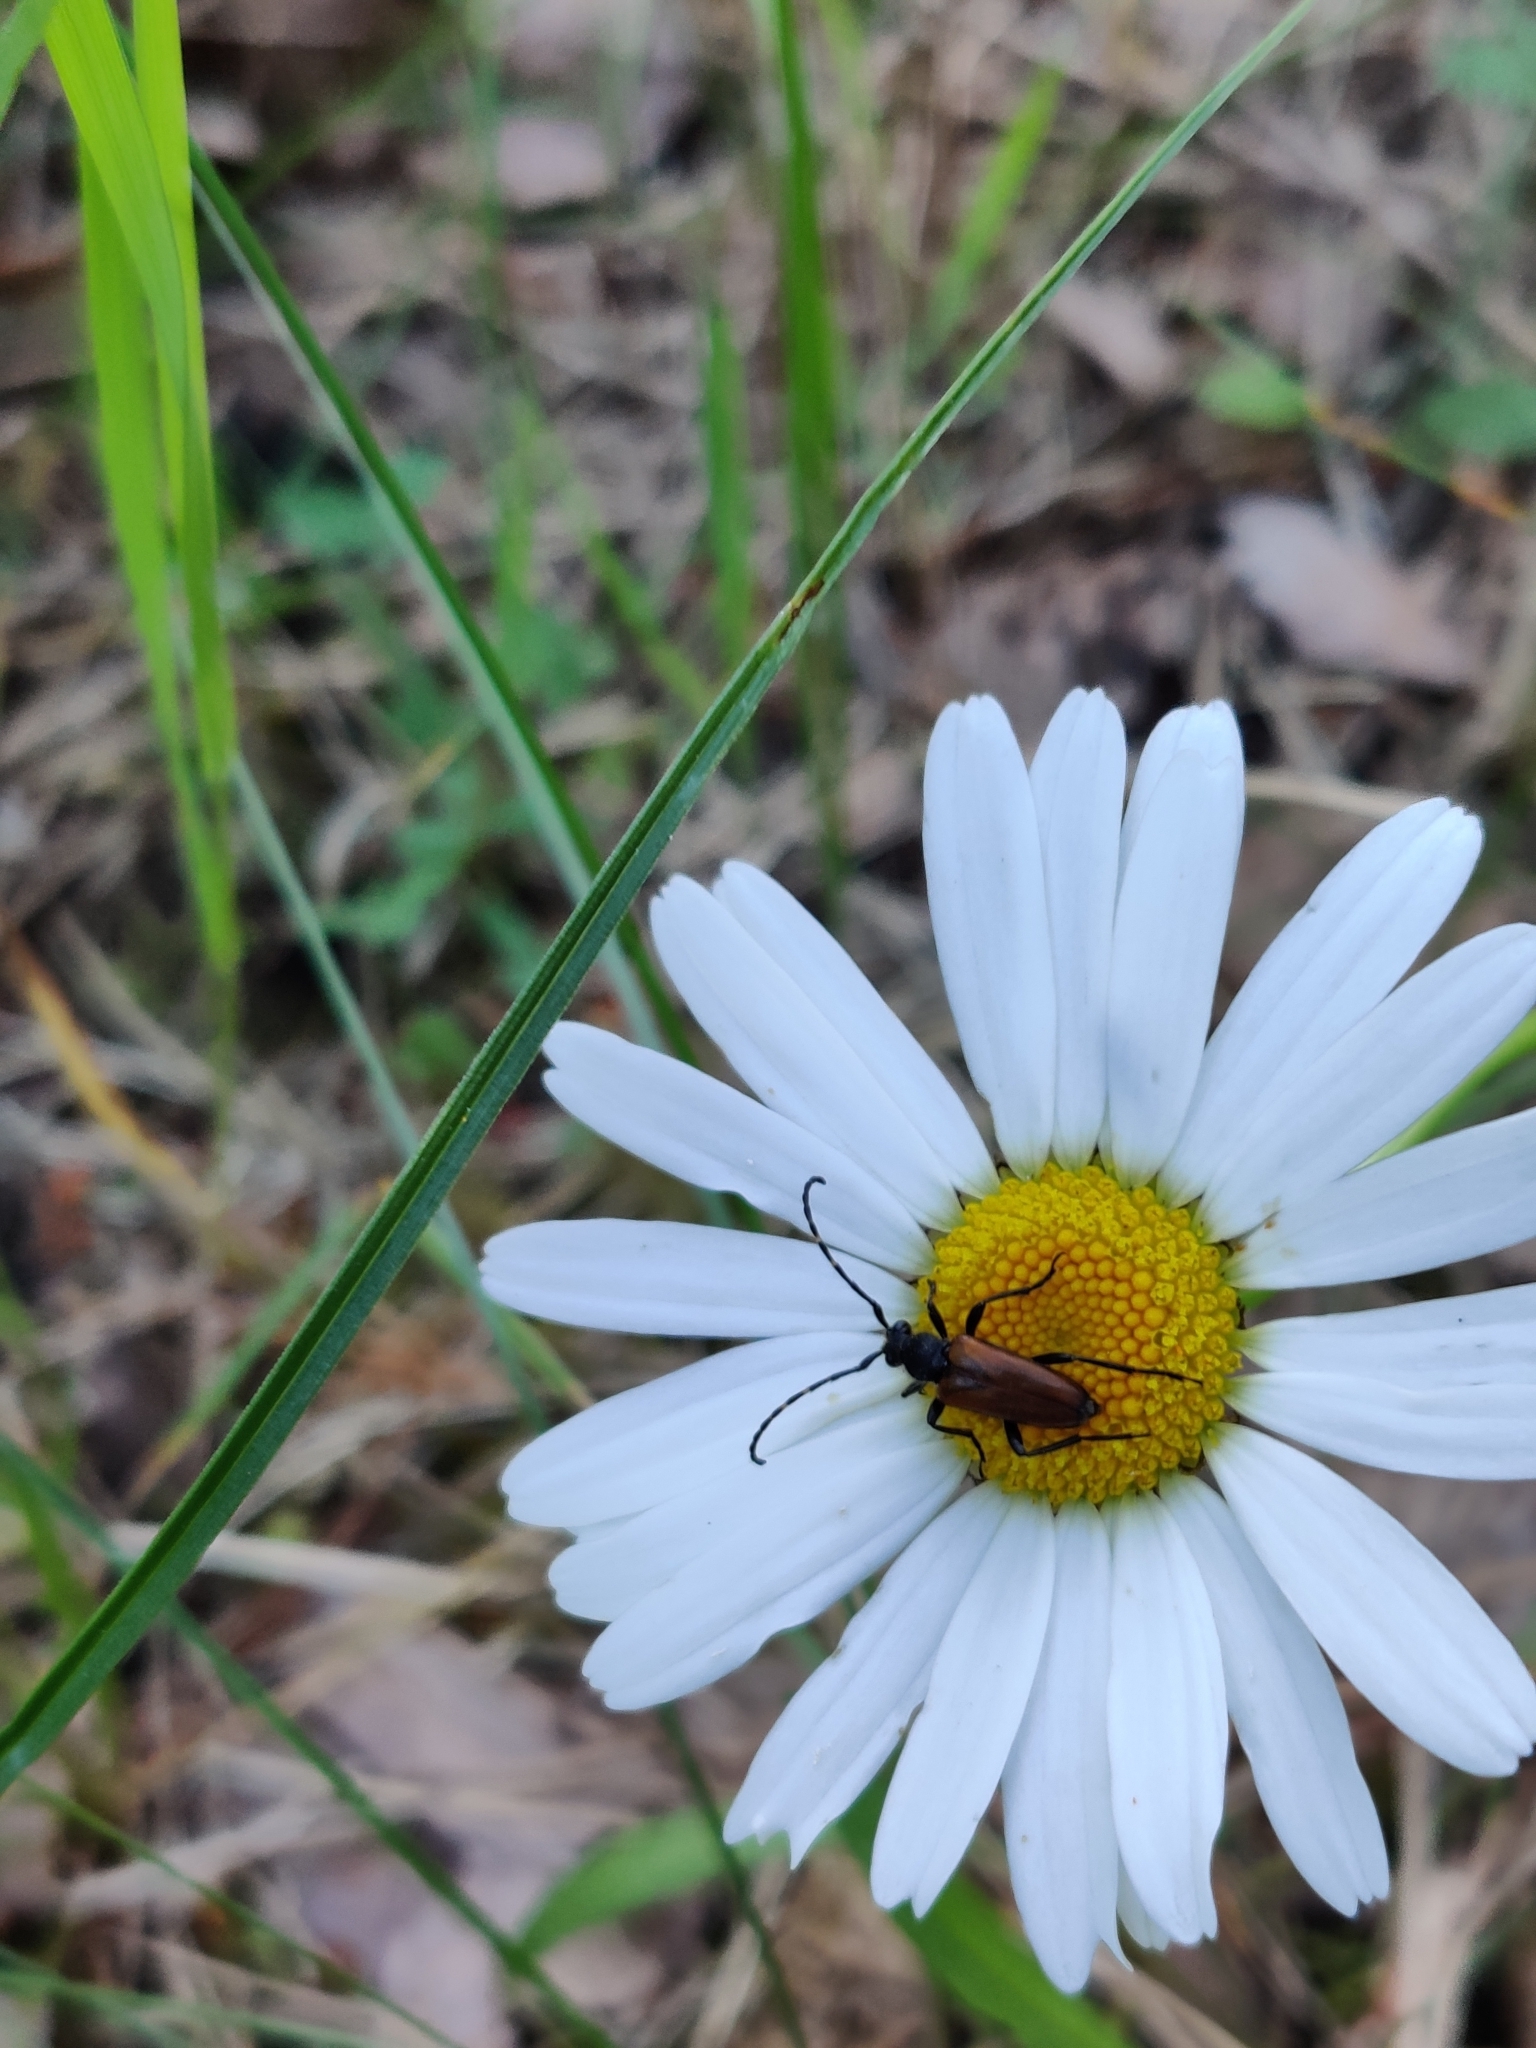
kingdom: Animalia
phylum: Arthropoda
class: Insecta
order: Coleoptera
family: Cerambycidae
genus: Paracorymbia
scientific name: Paracorymbia maculicornis
